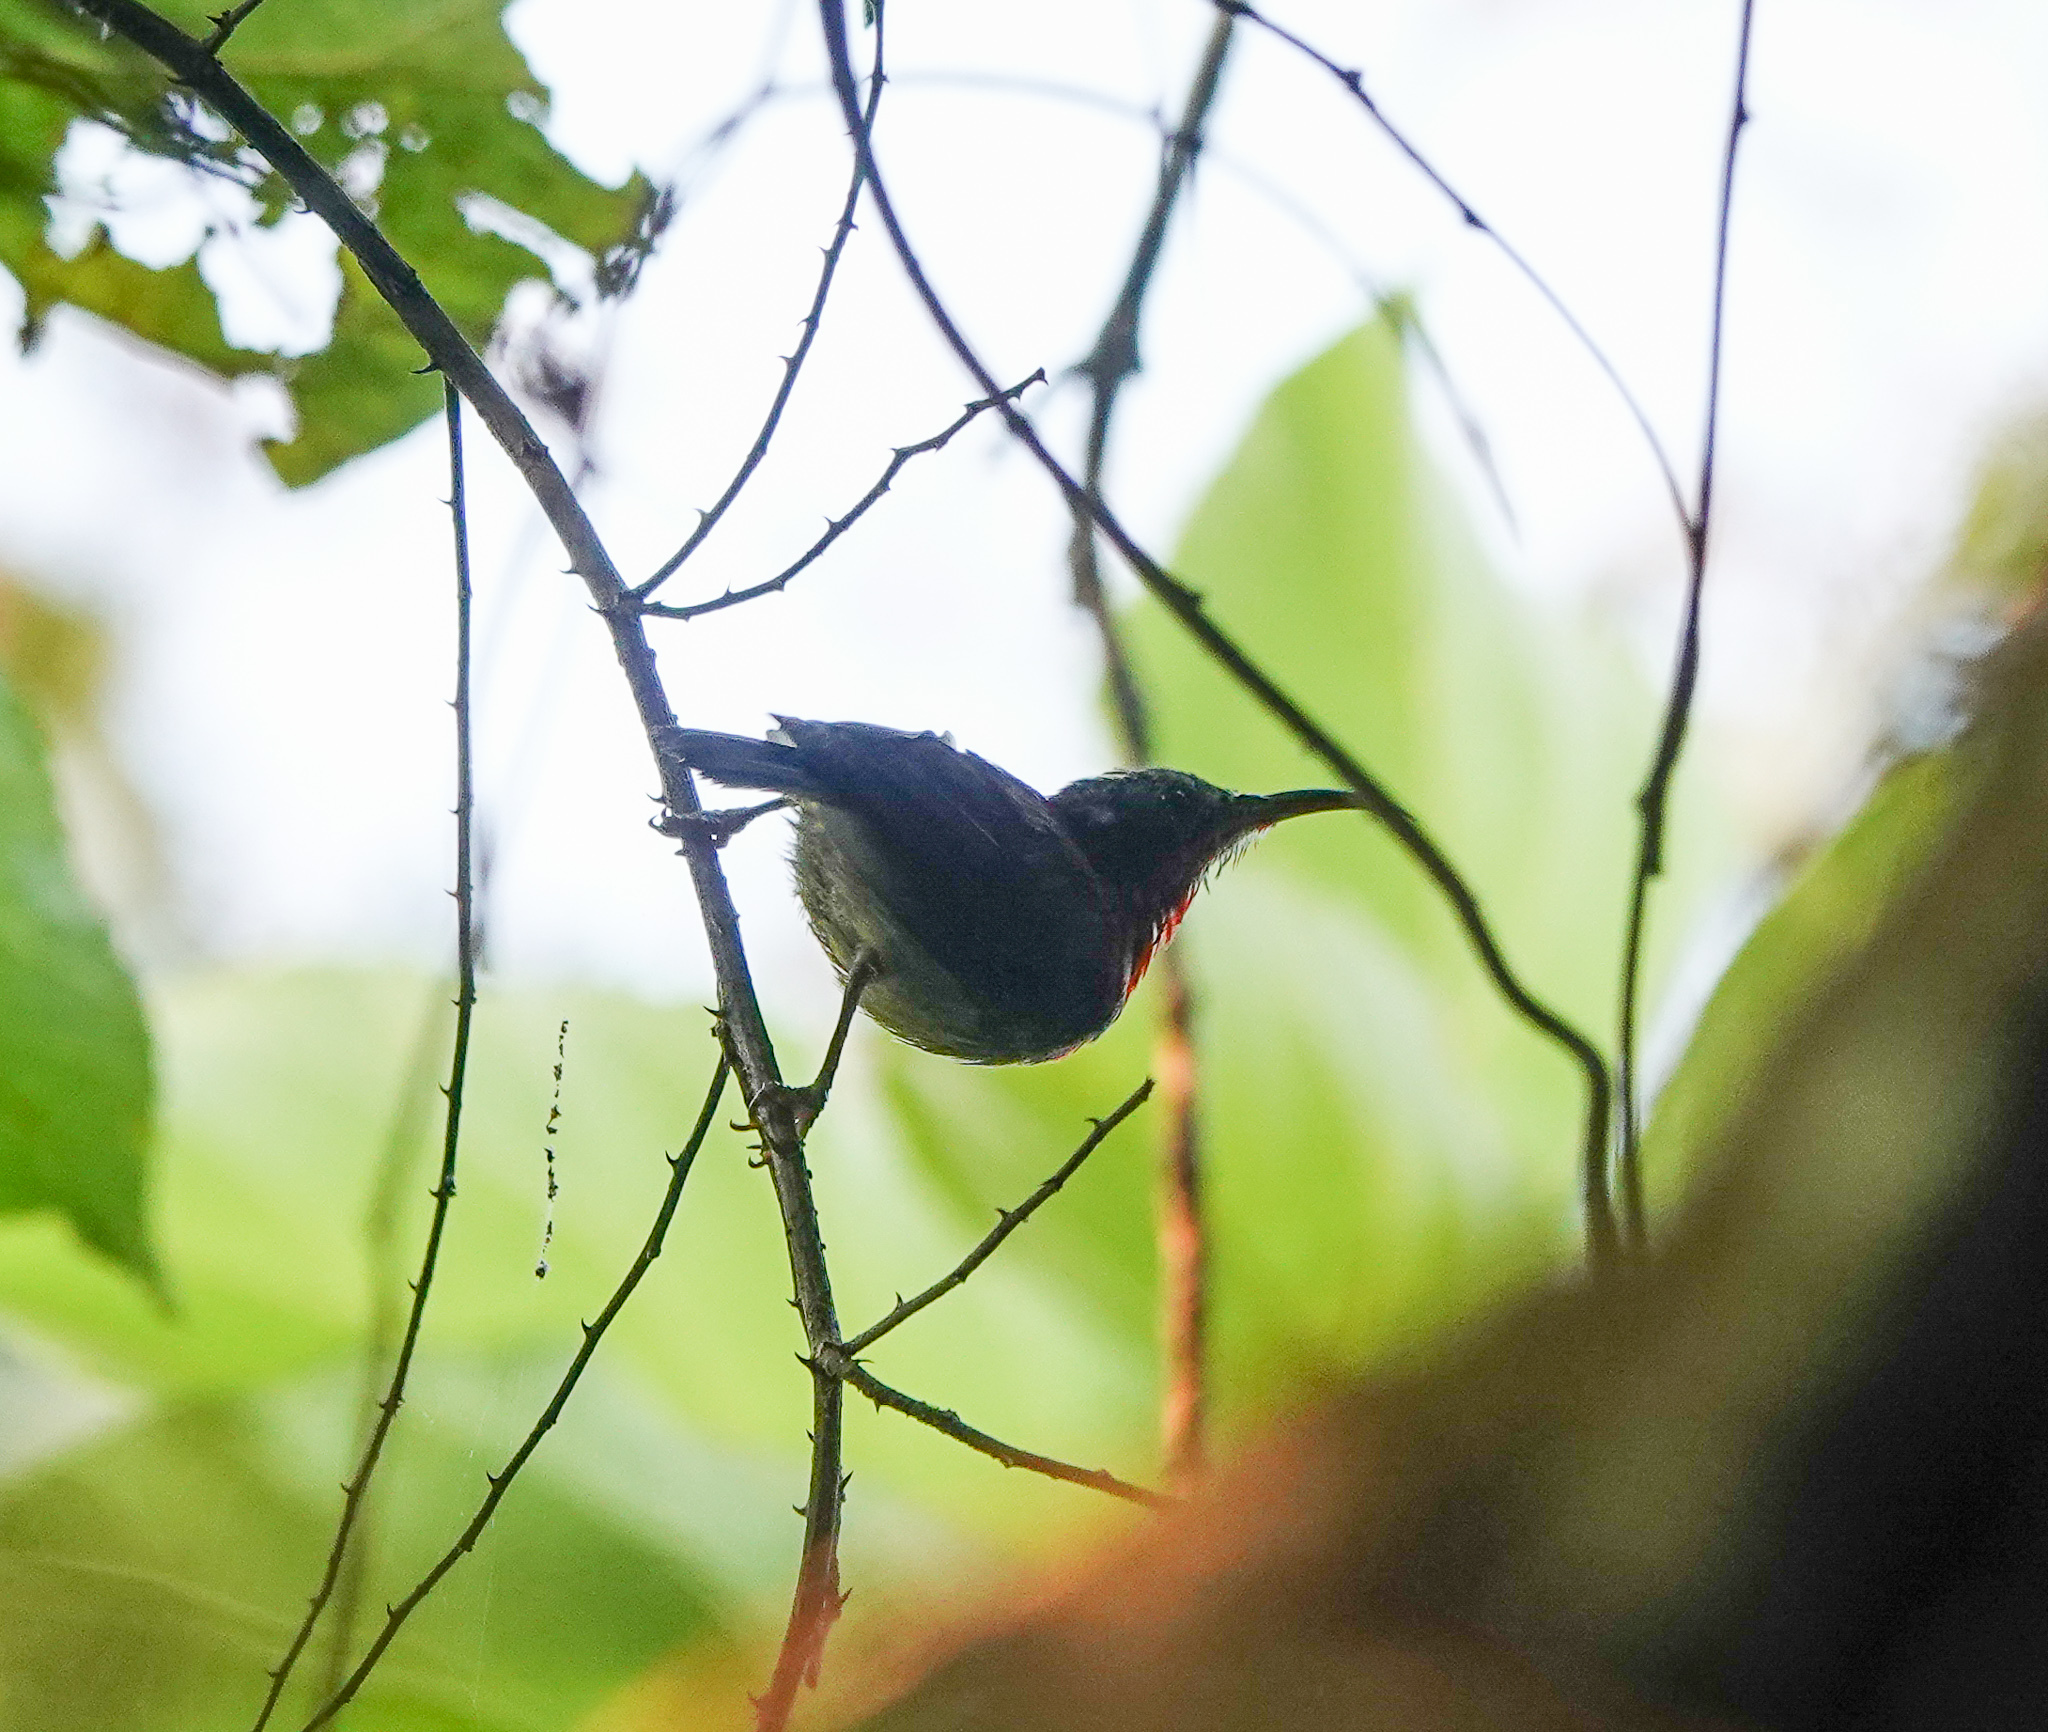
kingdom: Animalia
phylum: Chordata
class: Aves
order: Passeriformes
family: Nectariniidae
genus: Aethopyga
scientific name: Aethopyga siparaja
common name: Crimson sunbird
